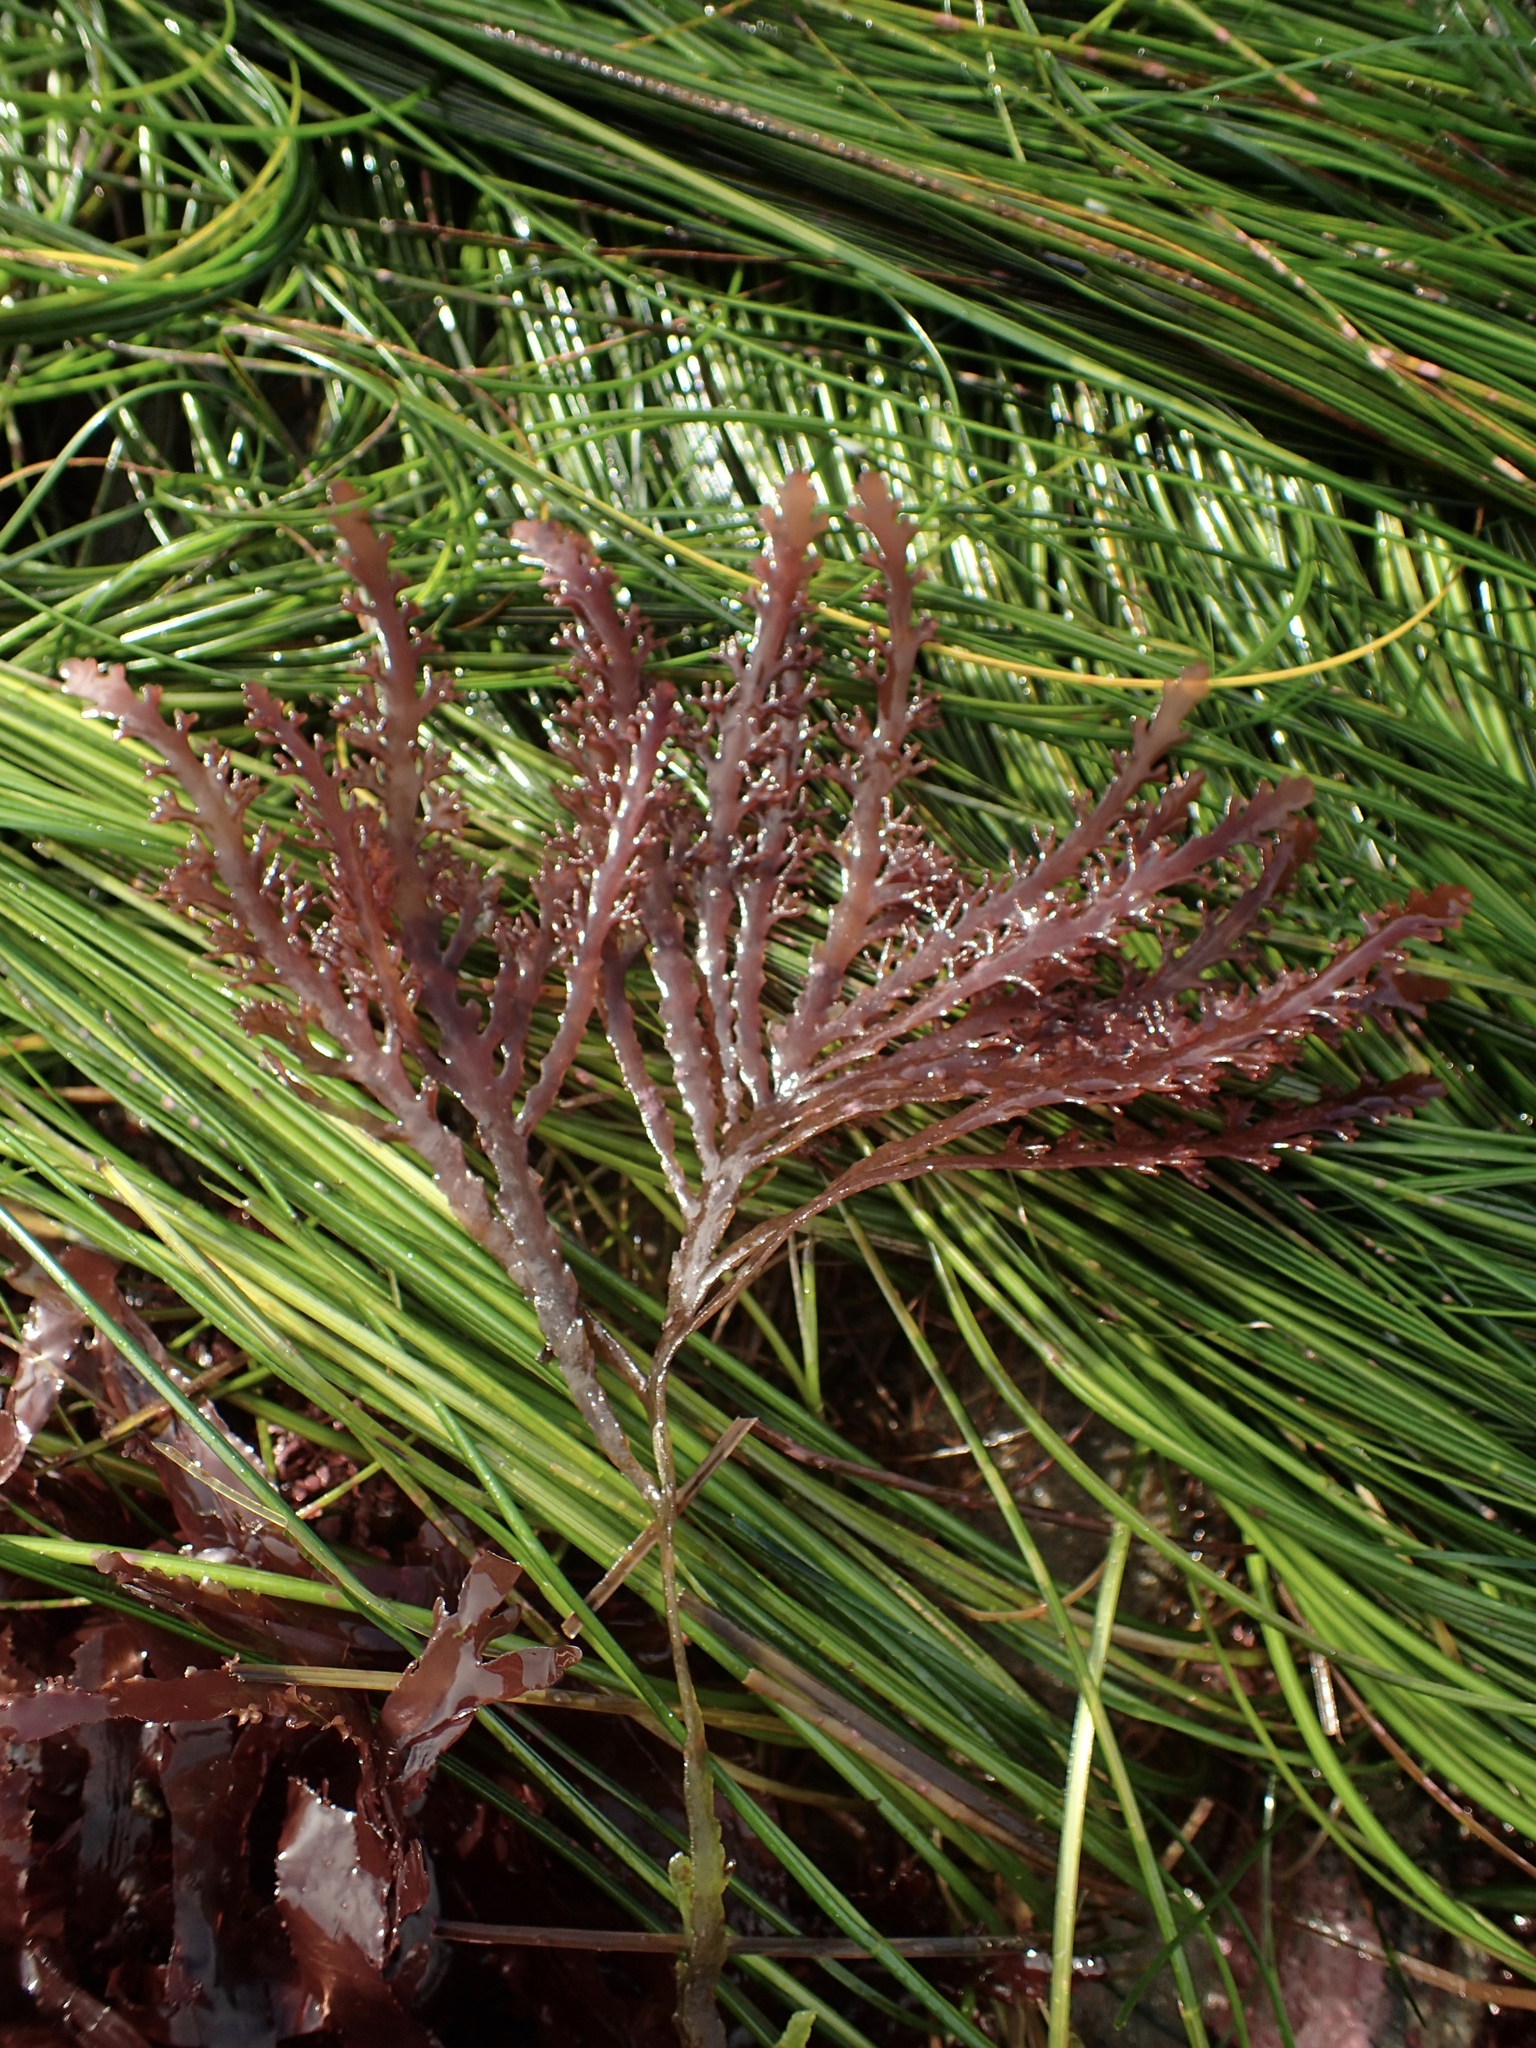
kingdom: Plantae
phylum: Rhodophyta
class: Florideophyceae
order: Ceramiales
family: Rhodomelaceae
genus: Osmundea
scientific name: Osmundea spectabilis
